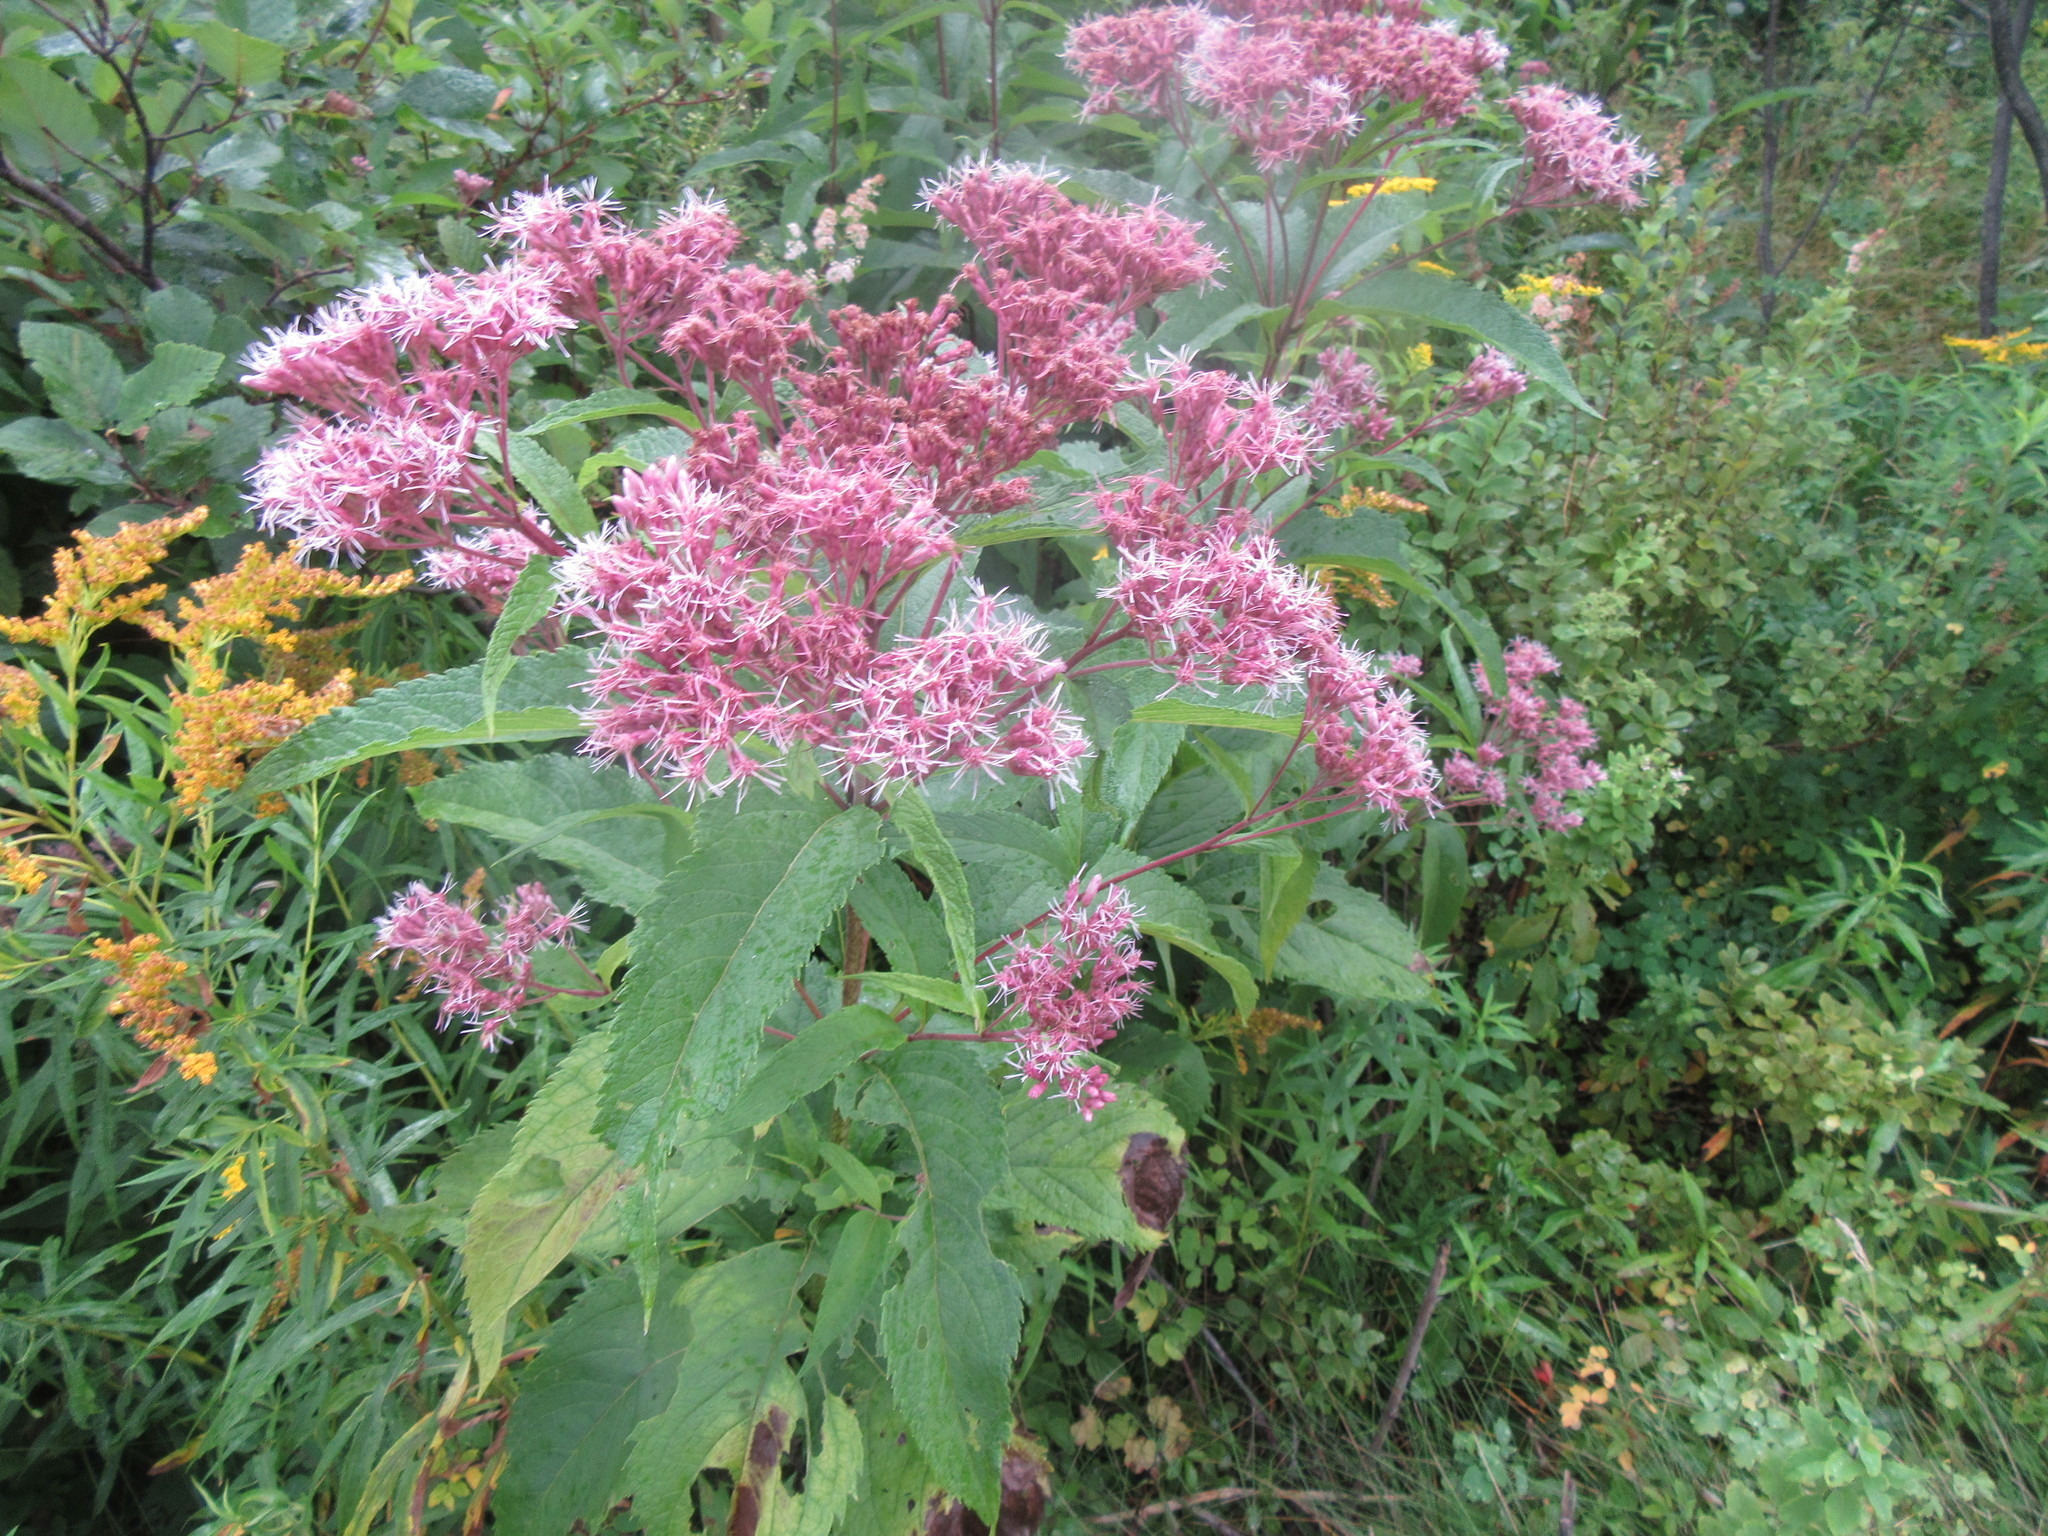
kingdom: Plantae
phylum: Tracheophyta
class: Magnoliopsida
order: Asterales
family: Asteraceae
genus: Eutrochium
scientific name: Eutrochium maculatum
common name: Spotted joe pye weed
